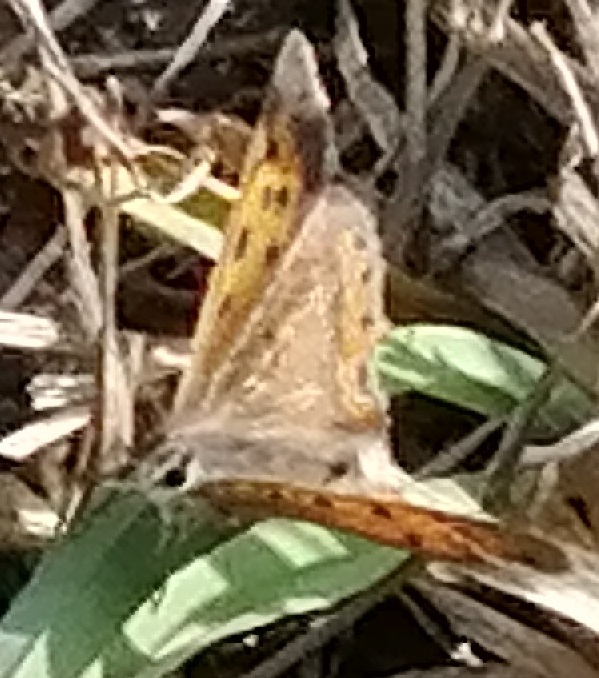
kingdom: Animalia
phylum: Arthropoda
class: Insecta
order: Lepidoptera
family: Lycaenidae
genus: Lycaena
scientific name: Lycaena phlaeas
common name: Small copper
